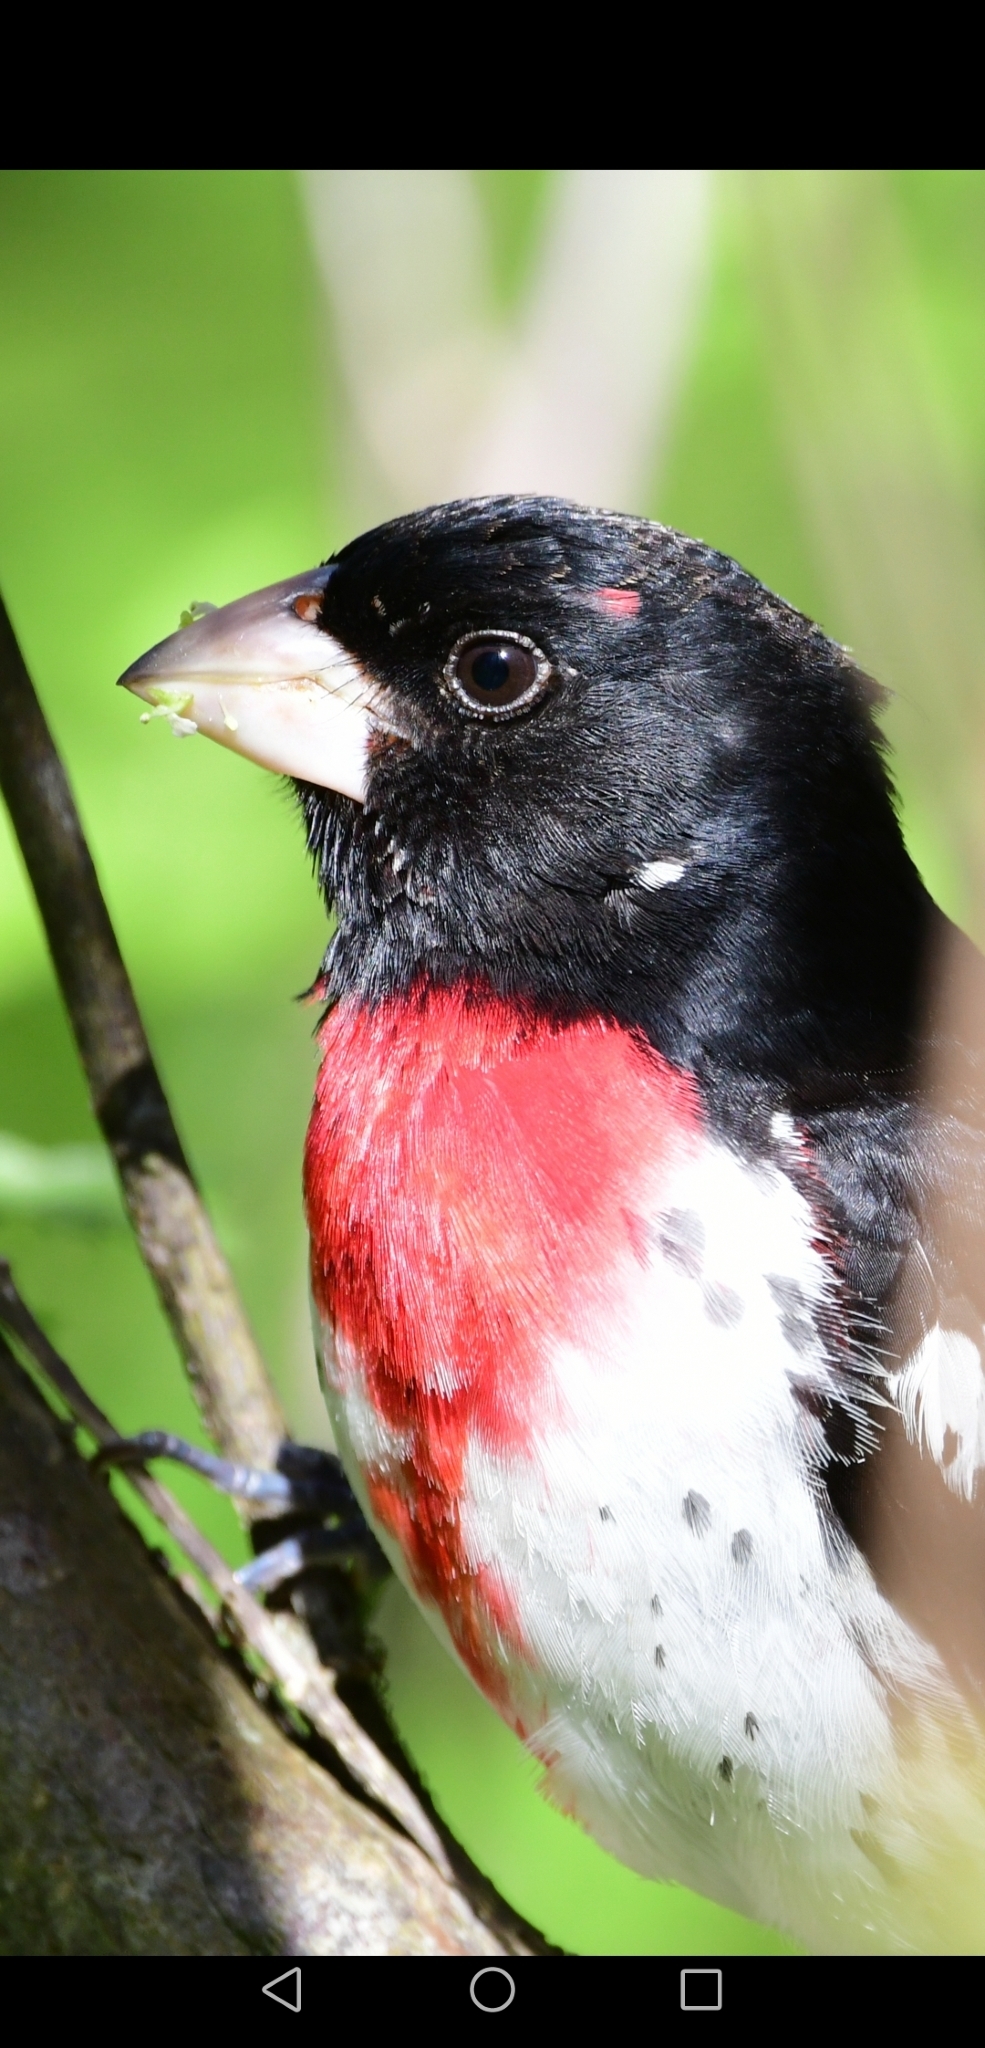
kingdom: Animalia
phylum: Chordata
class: Aves
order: Passeriformes
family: Cardinalidae
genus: Pheucticus
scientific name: Pheucticus ludovicianus
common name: Rose-breasted grosbeak
